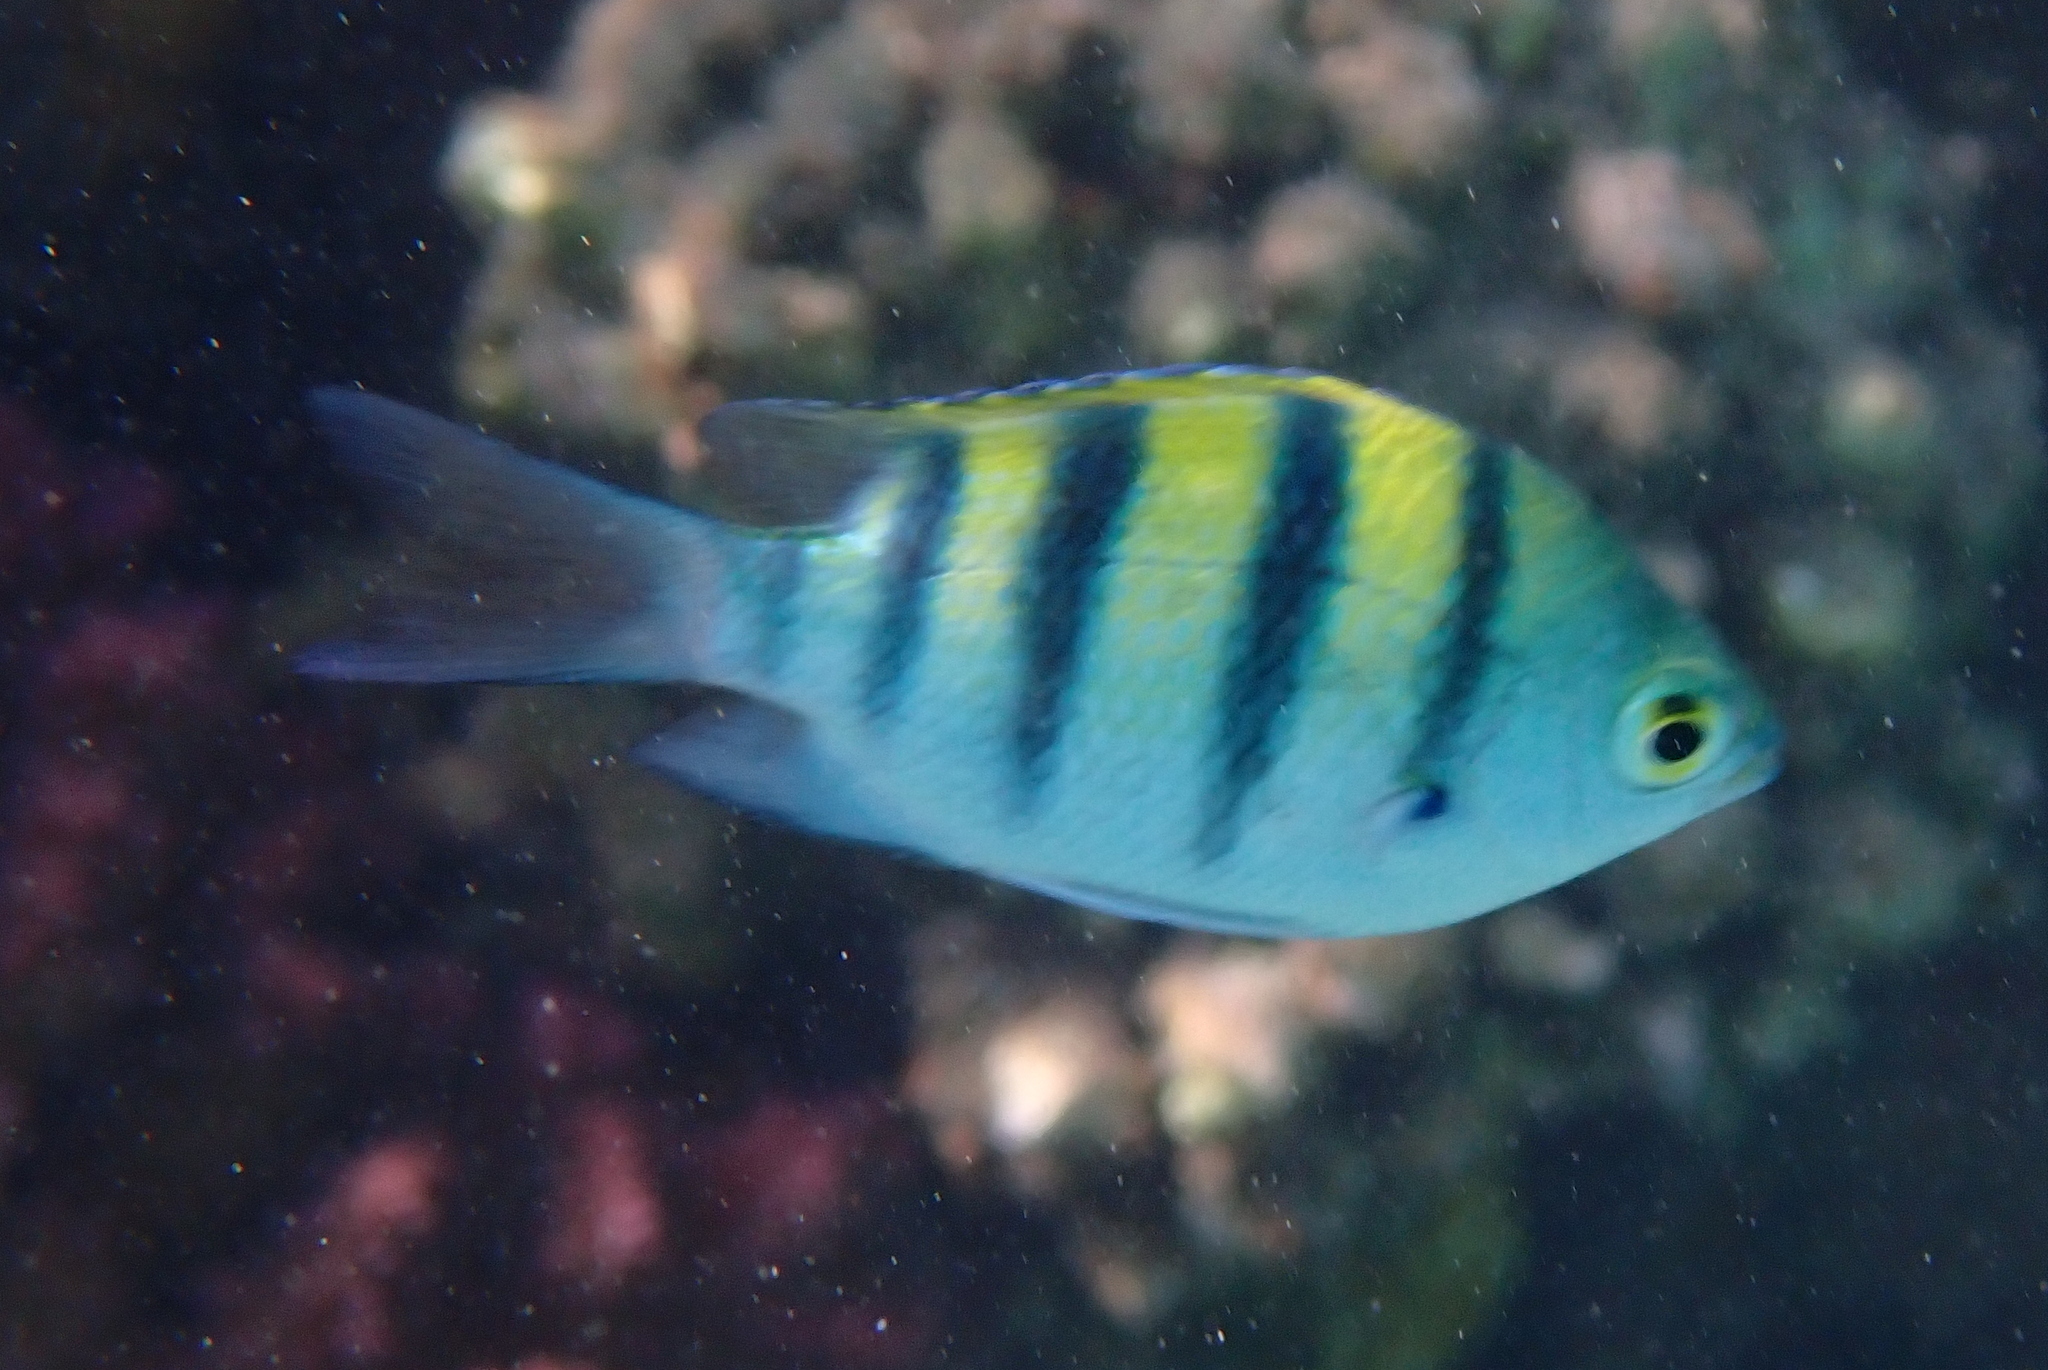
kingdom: Animalia
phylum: Chordata
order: Perciformes
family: Pomacentridae
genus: Abudefduf
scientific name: Abudefduf vaigiensis
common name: Indo-pacific sergeant
